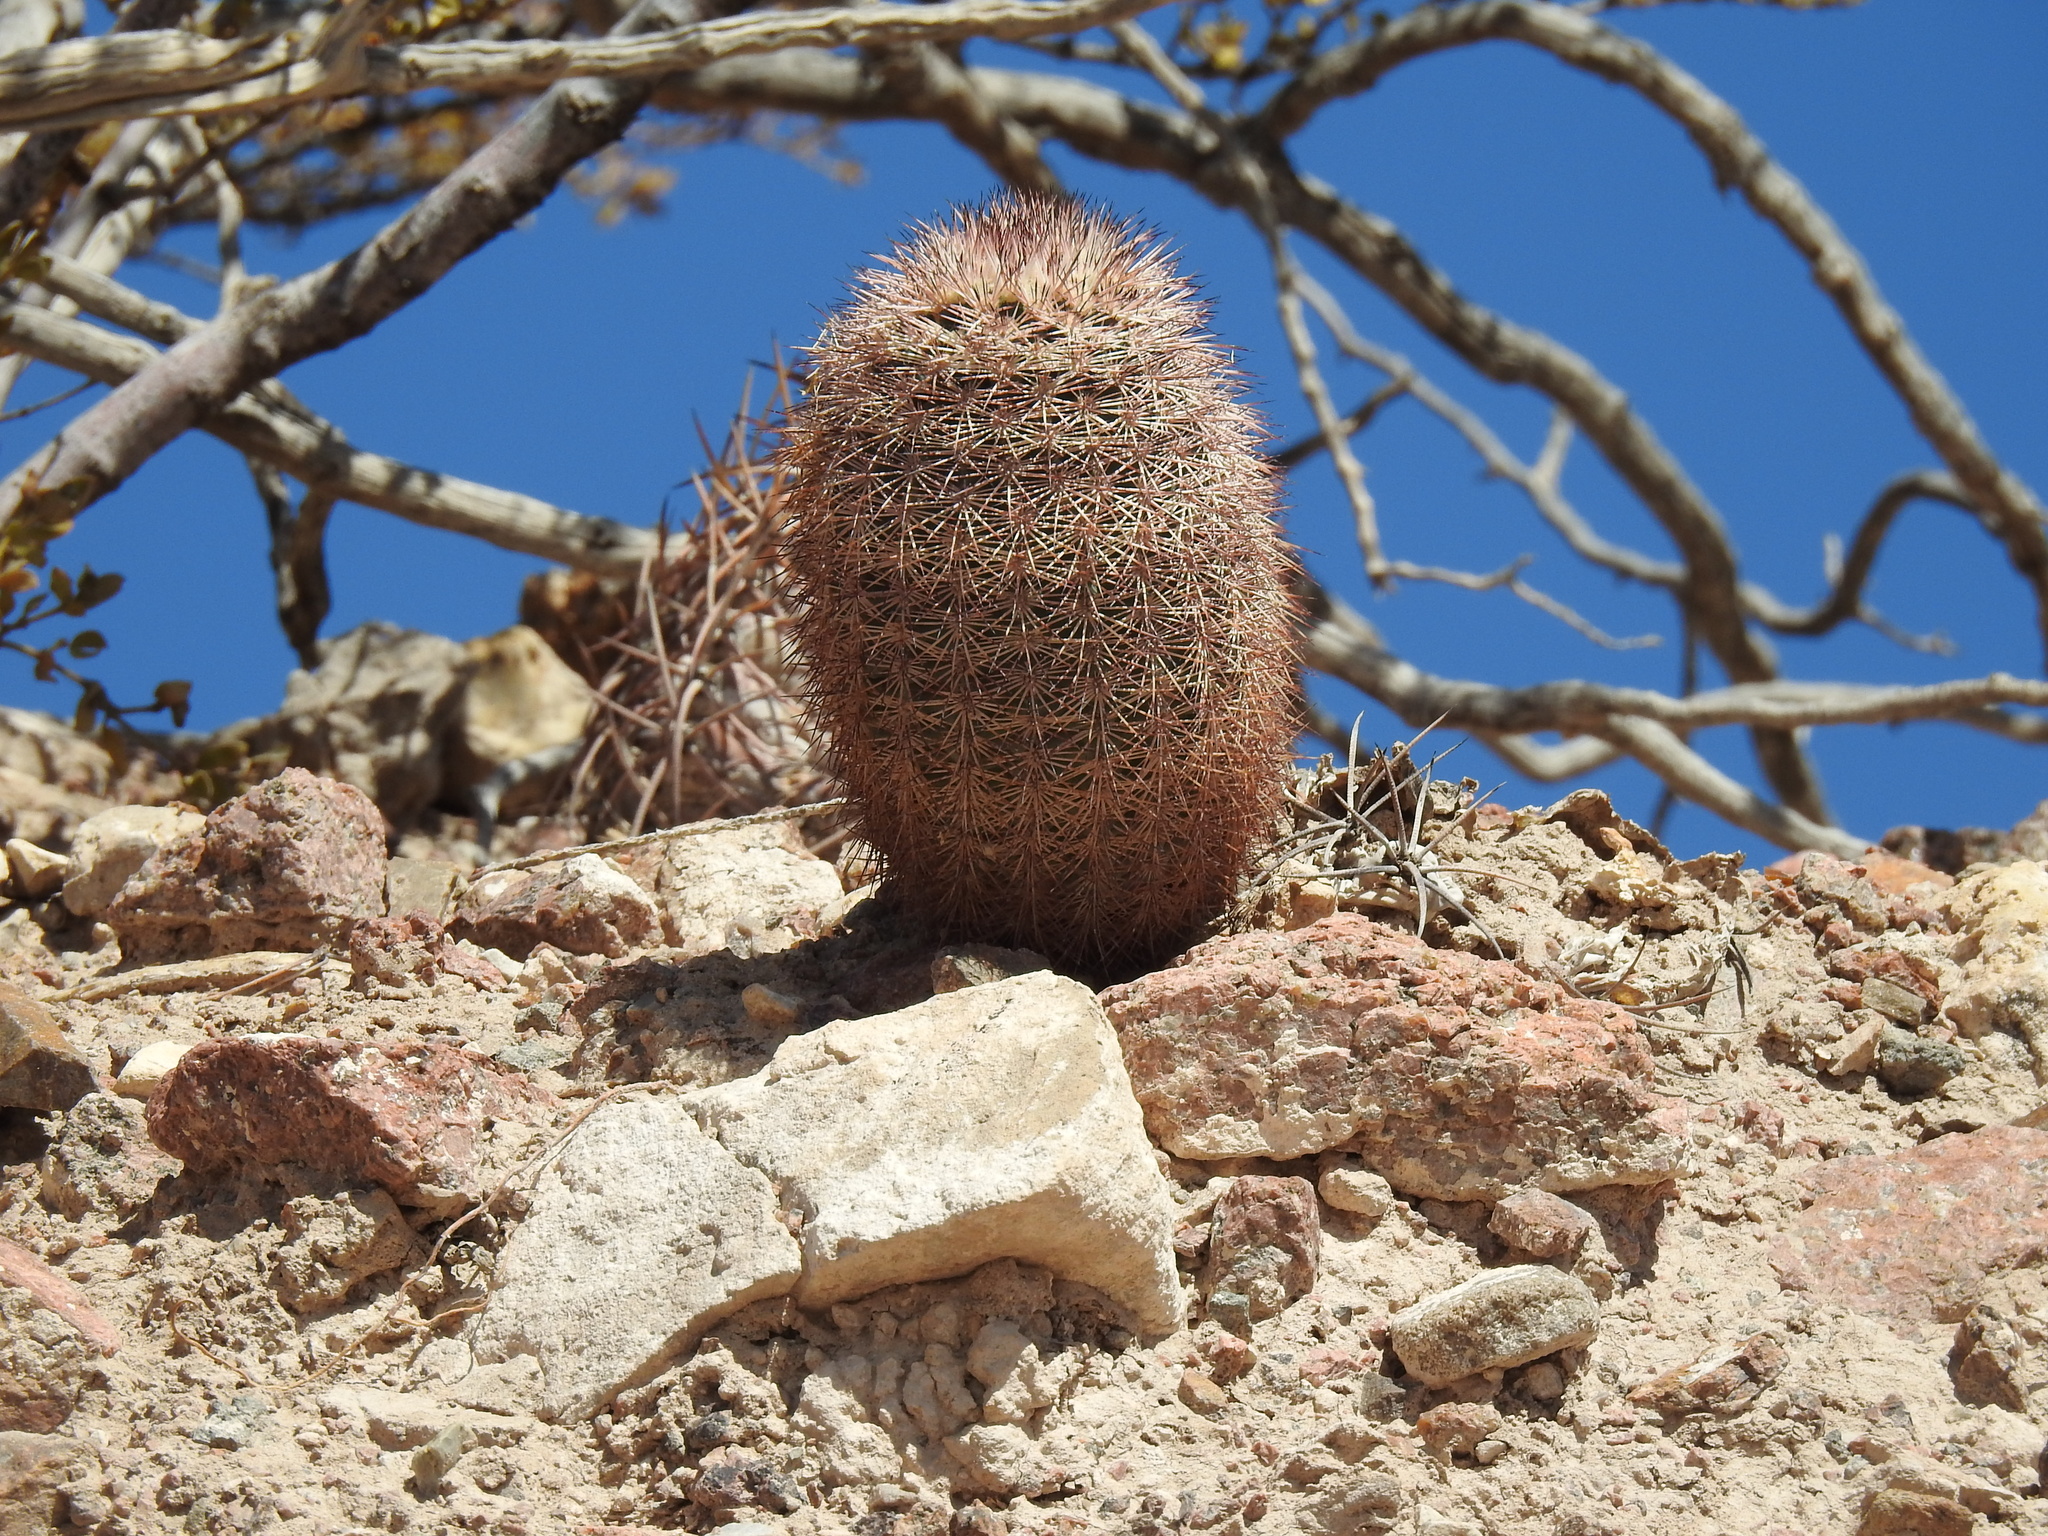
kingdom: Plantae
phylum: Tracheophyta
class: Magnoliopsida
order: Caryophyllales
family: Cactaceae
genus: Echinocereus
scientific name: Echinocereus dasyacanthus
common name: Spiny hedgehog cactus
